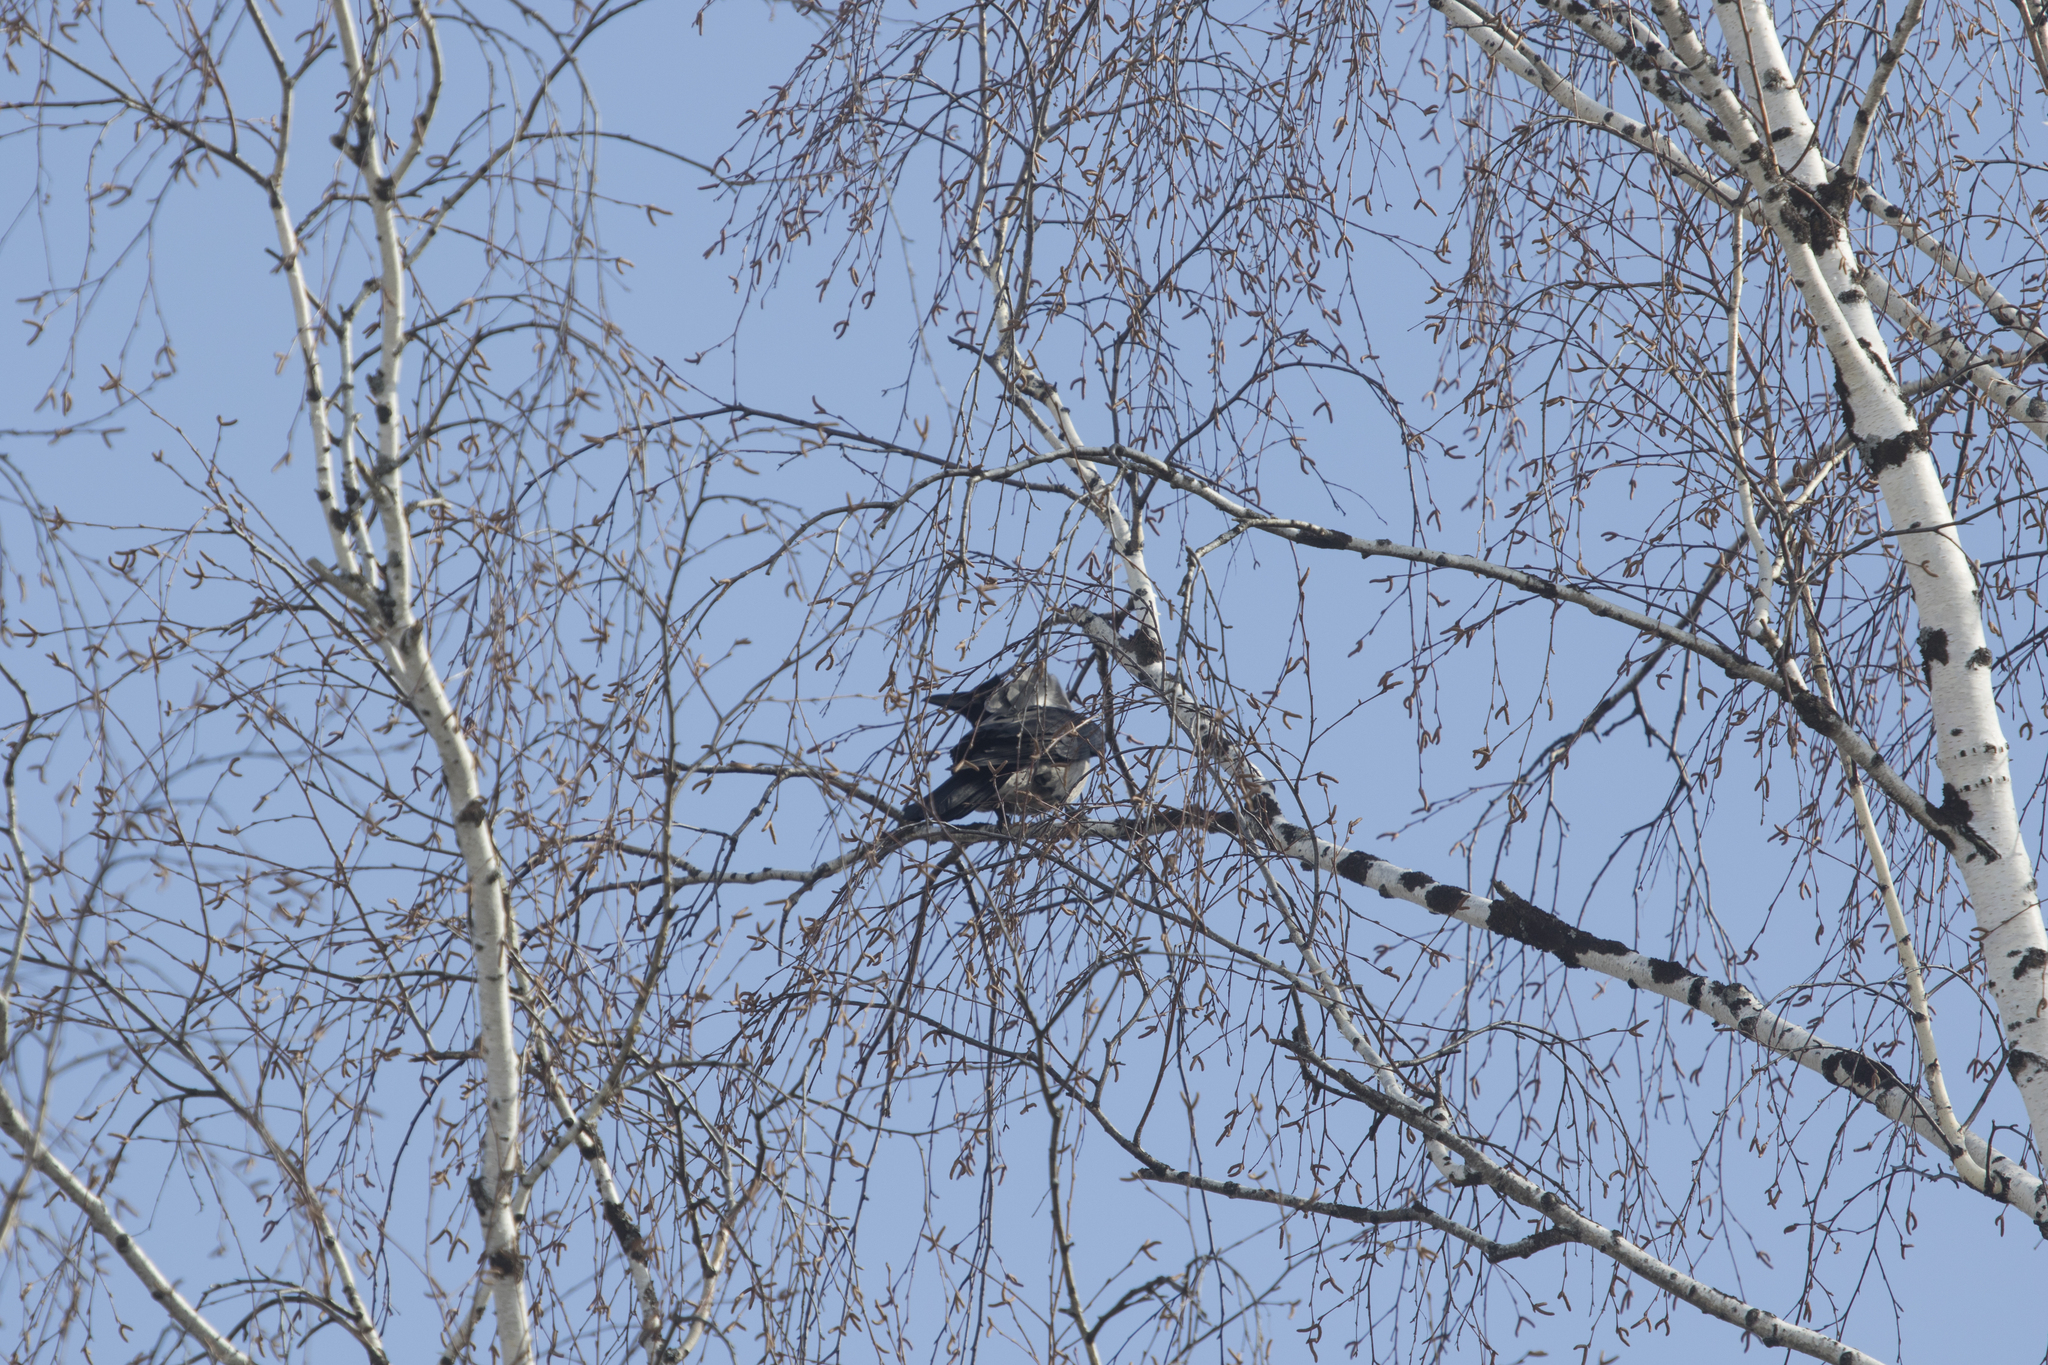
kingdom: Animalia
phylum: Chordata
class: Aves
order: Passeriformes
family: Corvidae
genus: Corvus
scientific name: Corvus cornix
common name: Hooded crow
